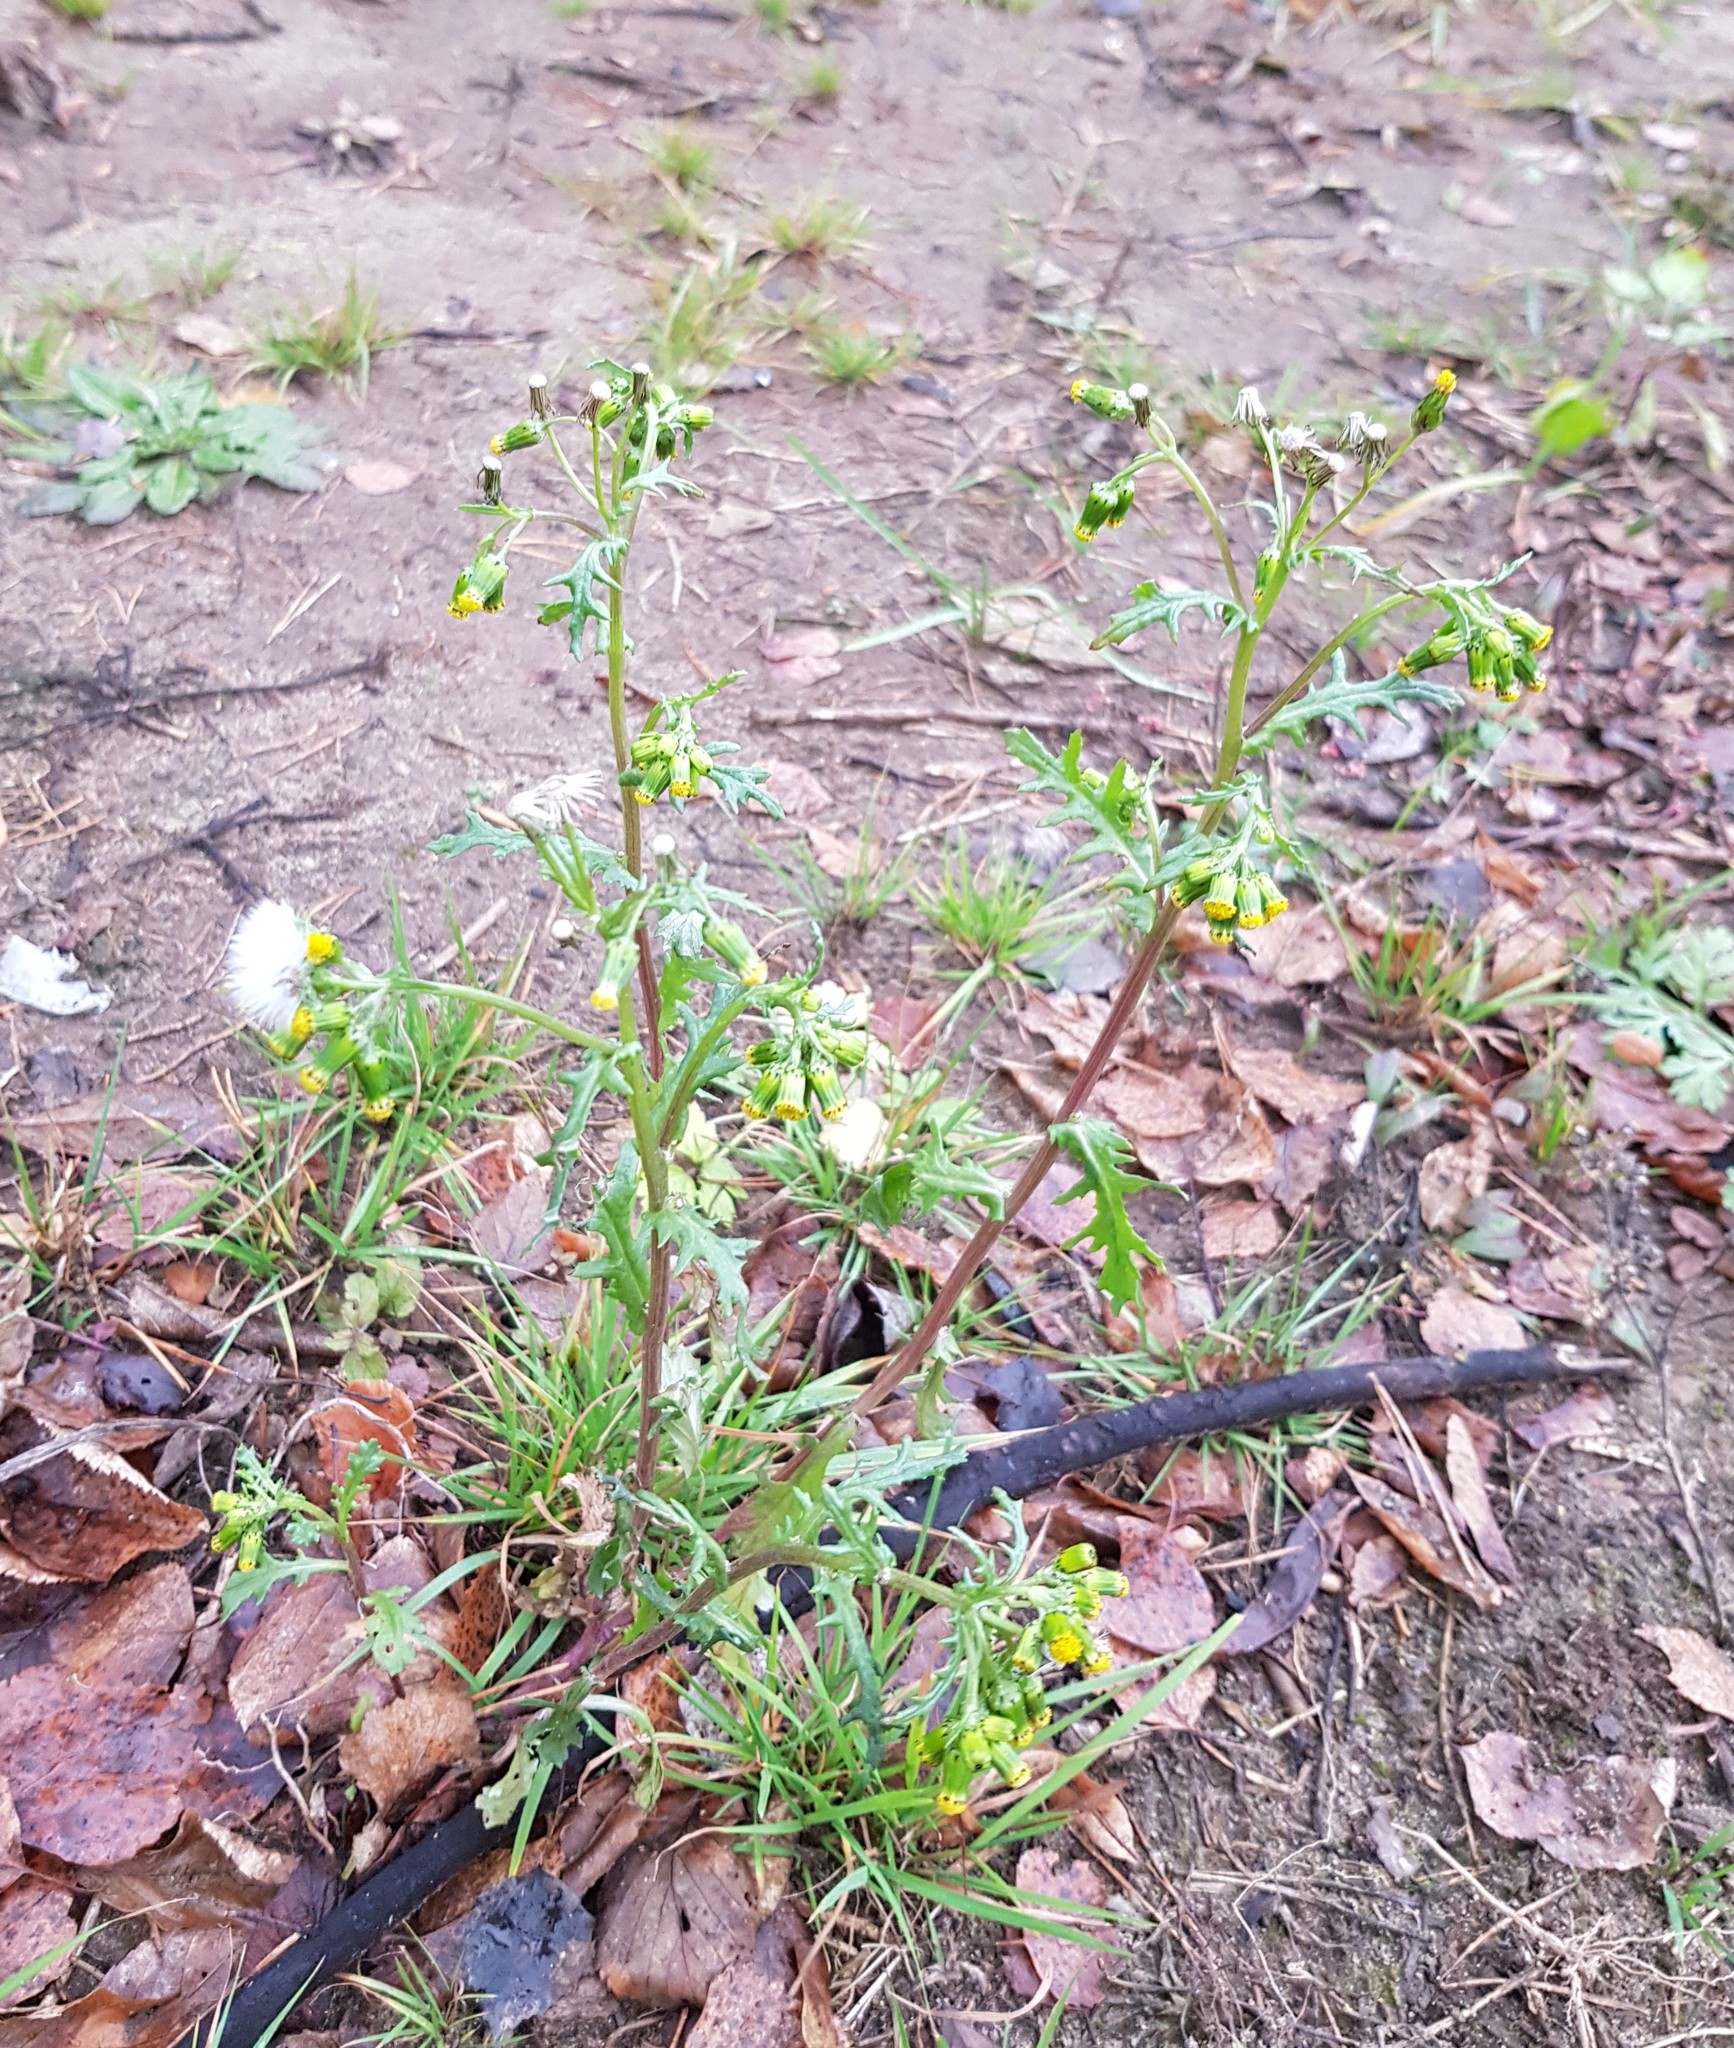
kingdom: Plantae
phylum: Tracheophyta
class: Magnoliopsida
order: Asterales
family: Asteraceae
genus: Senecio
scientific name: Senecio vulgaris
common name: Old-man-in-the-spring
